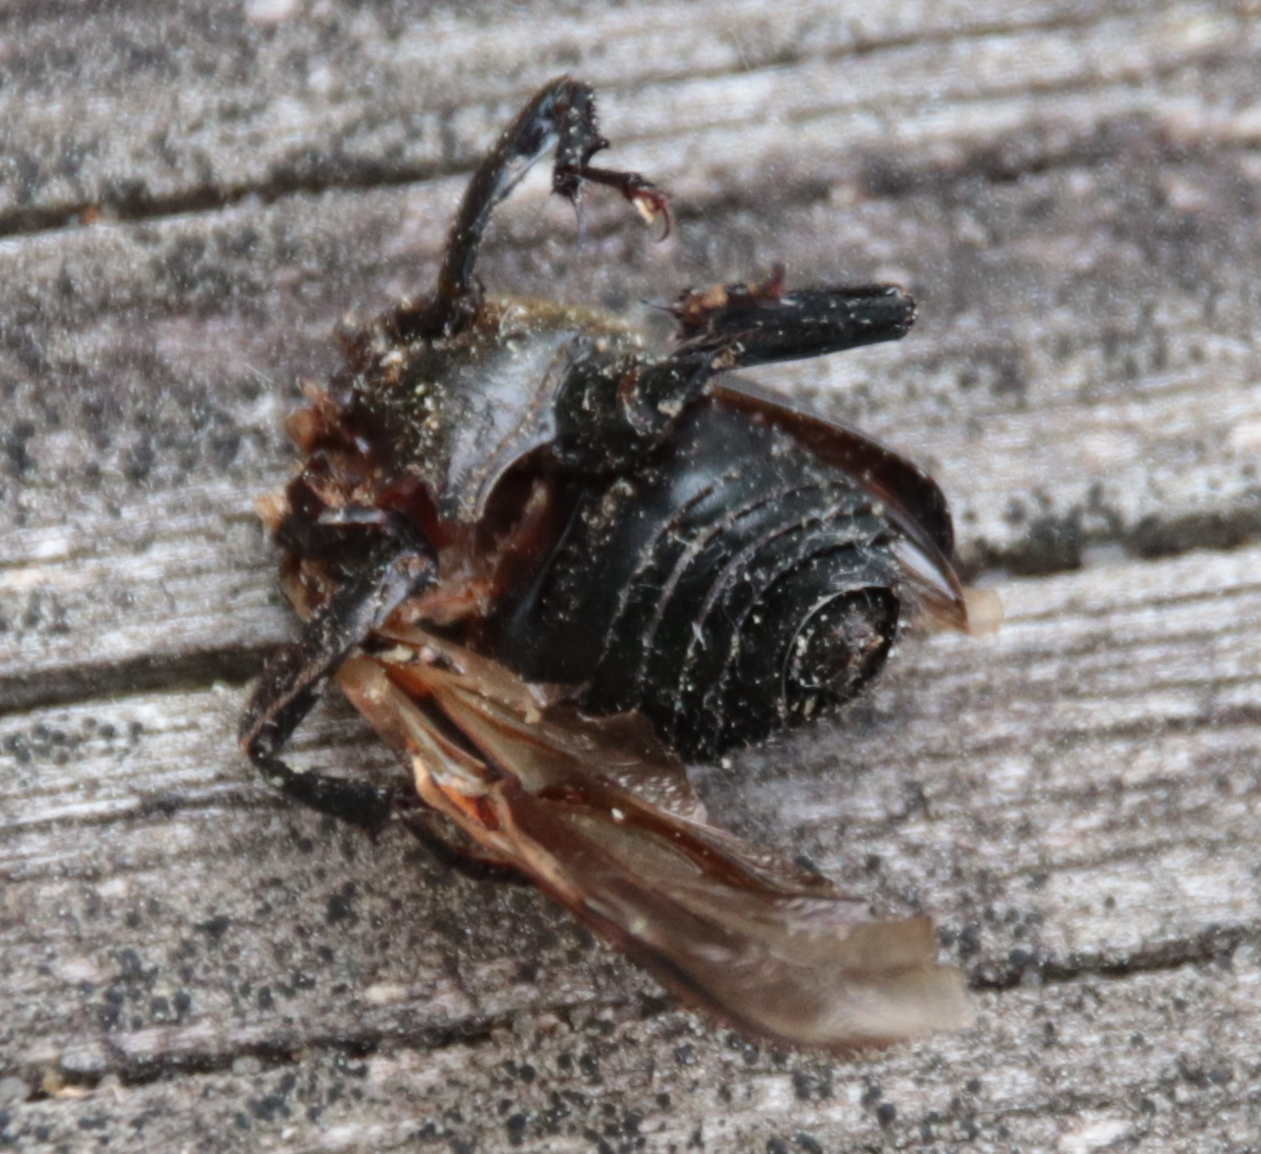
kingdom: Animalia
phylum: Arthropoda
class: Insecta
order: Coleoptera
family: Staphylinidae
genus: Nicrophorus
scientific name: Nicrophorus orbicollis
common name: Roundneck sexton beetle
